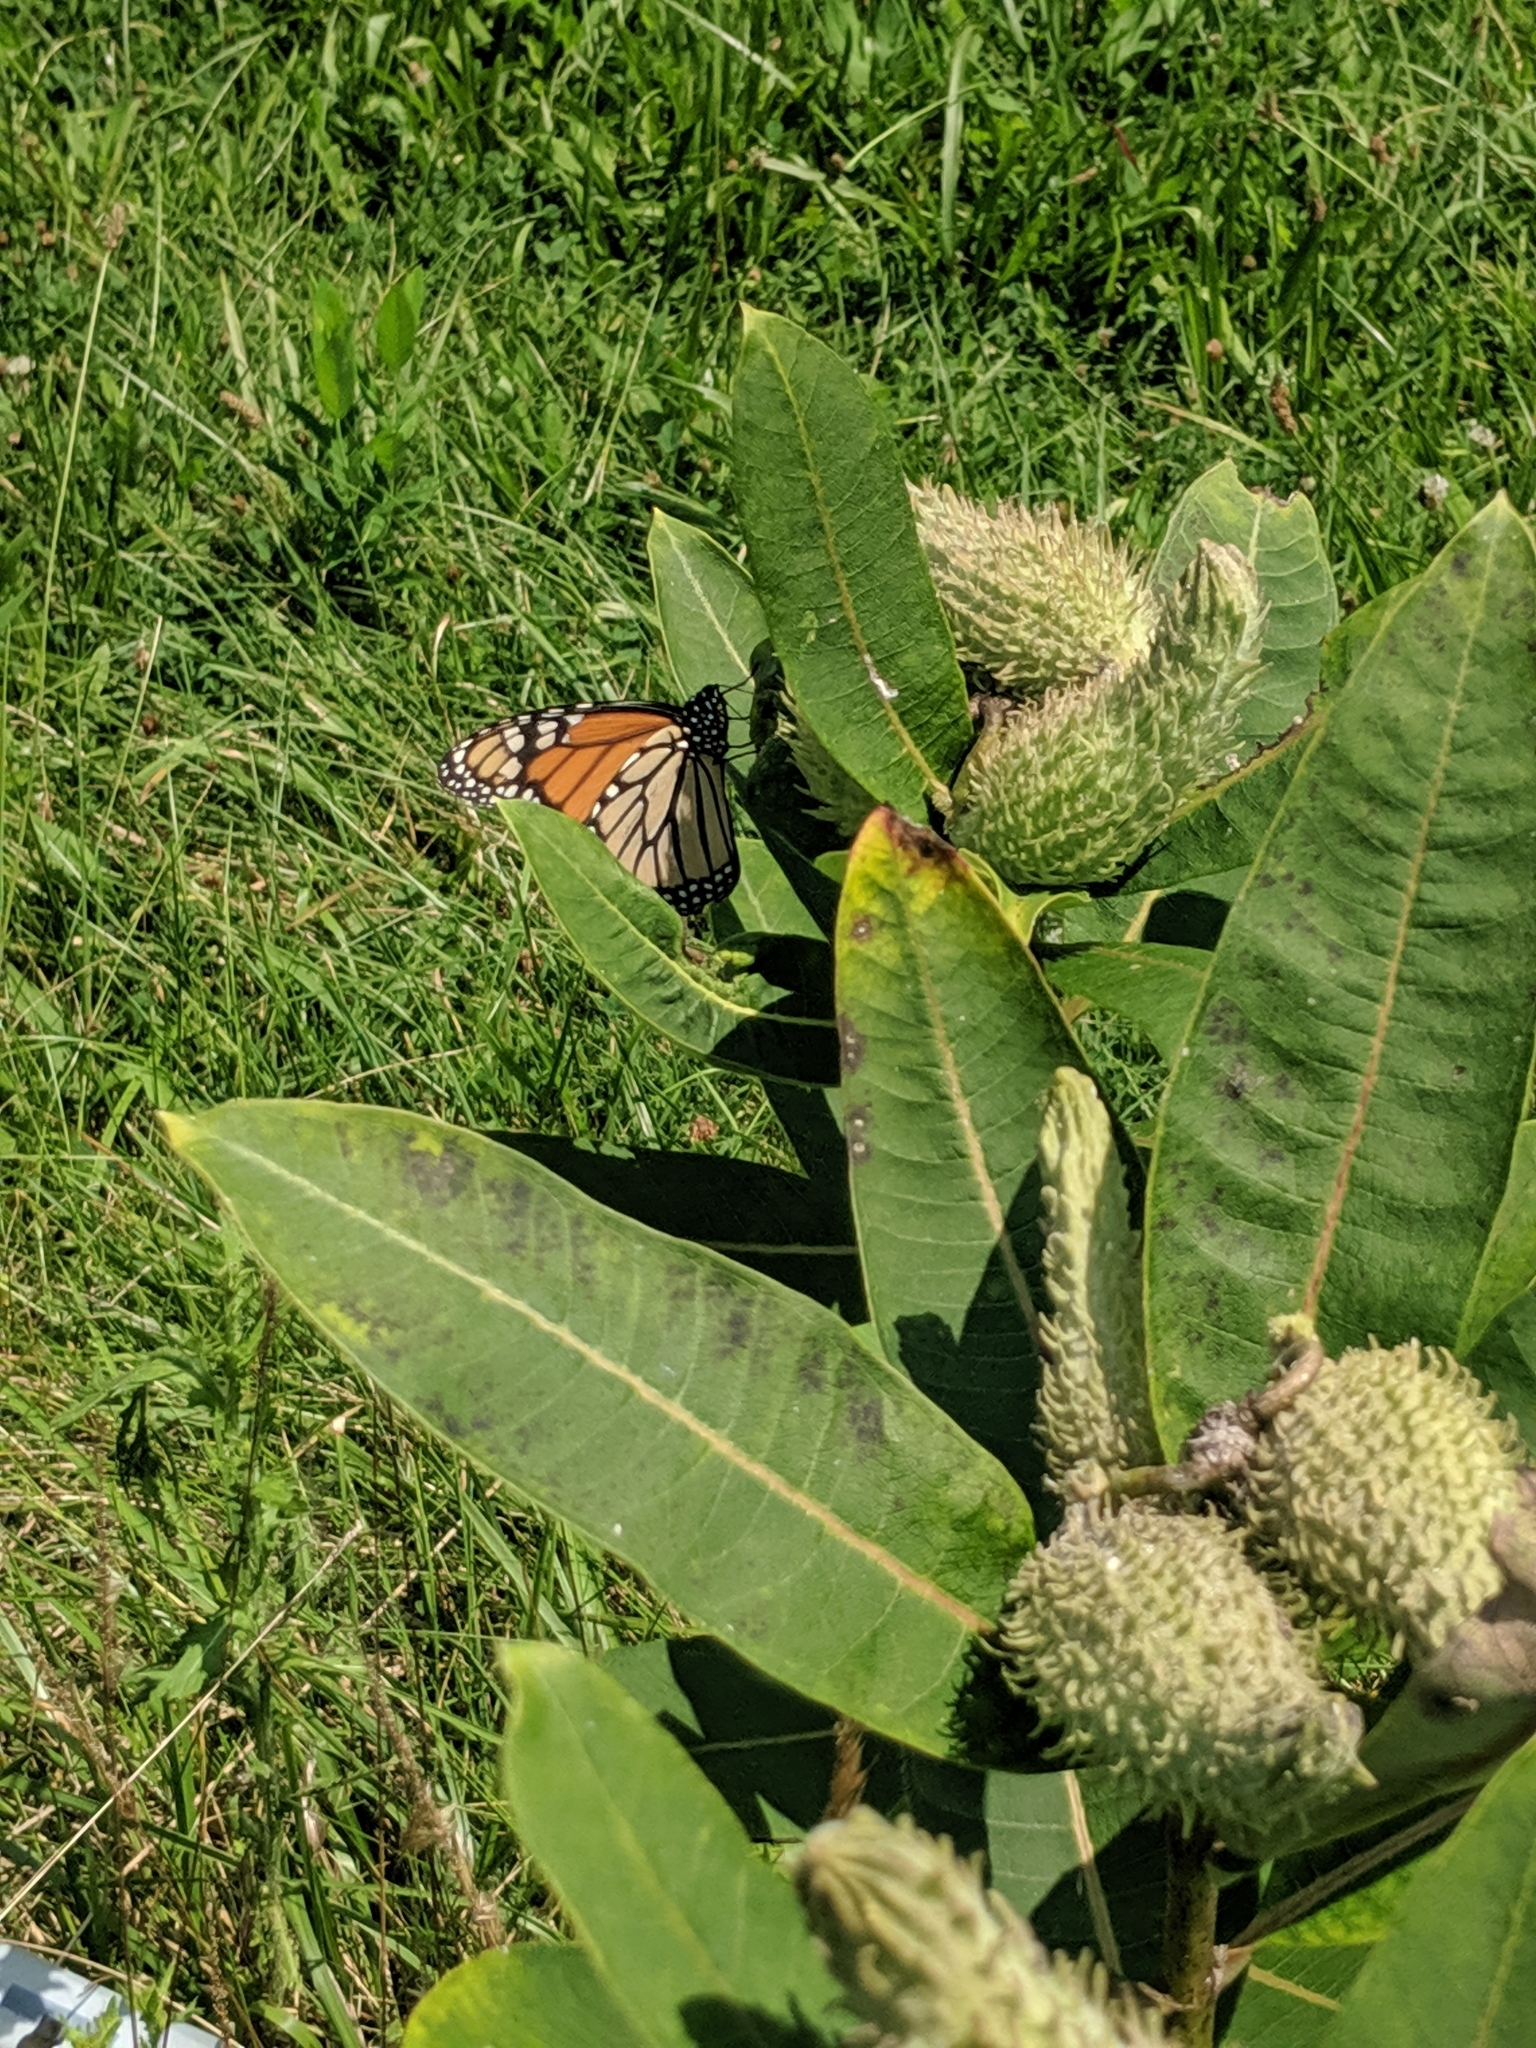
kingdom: Animalia
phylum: Arthropoda
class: Insecta
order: Lepidoptera
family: Nymphalidae
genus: Danaus
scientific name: Danaus plexippus
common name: Monarch
